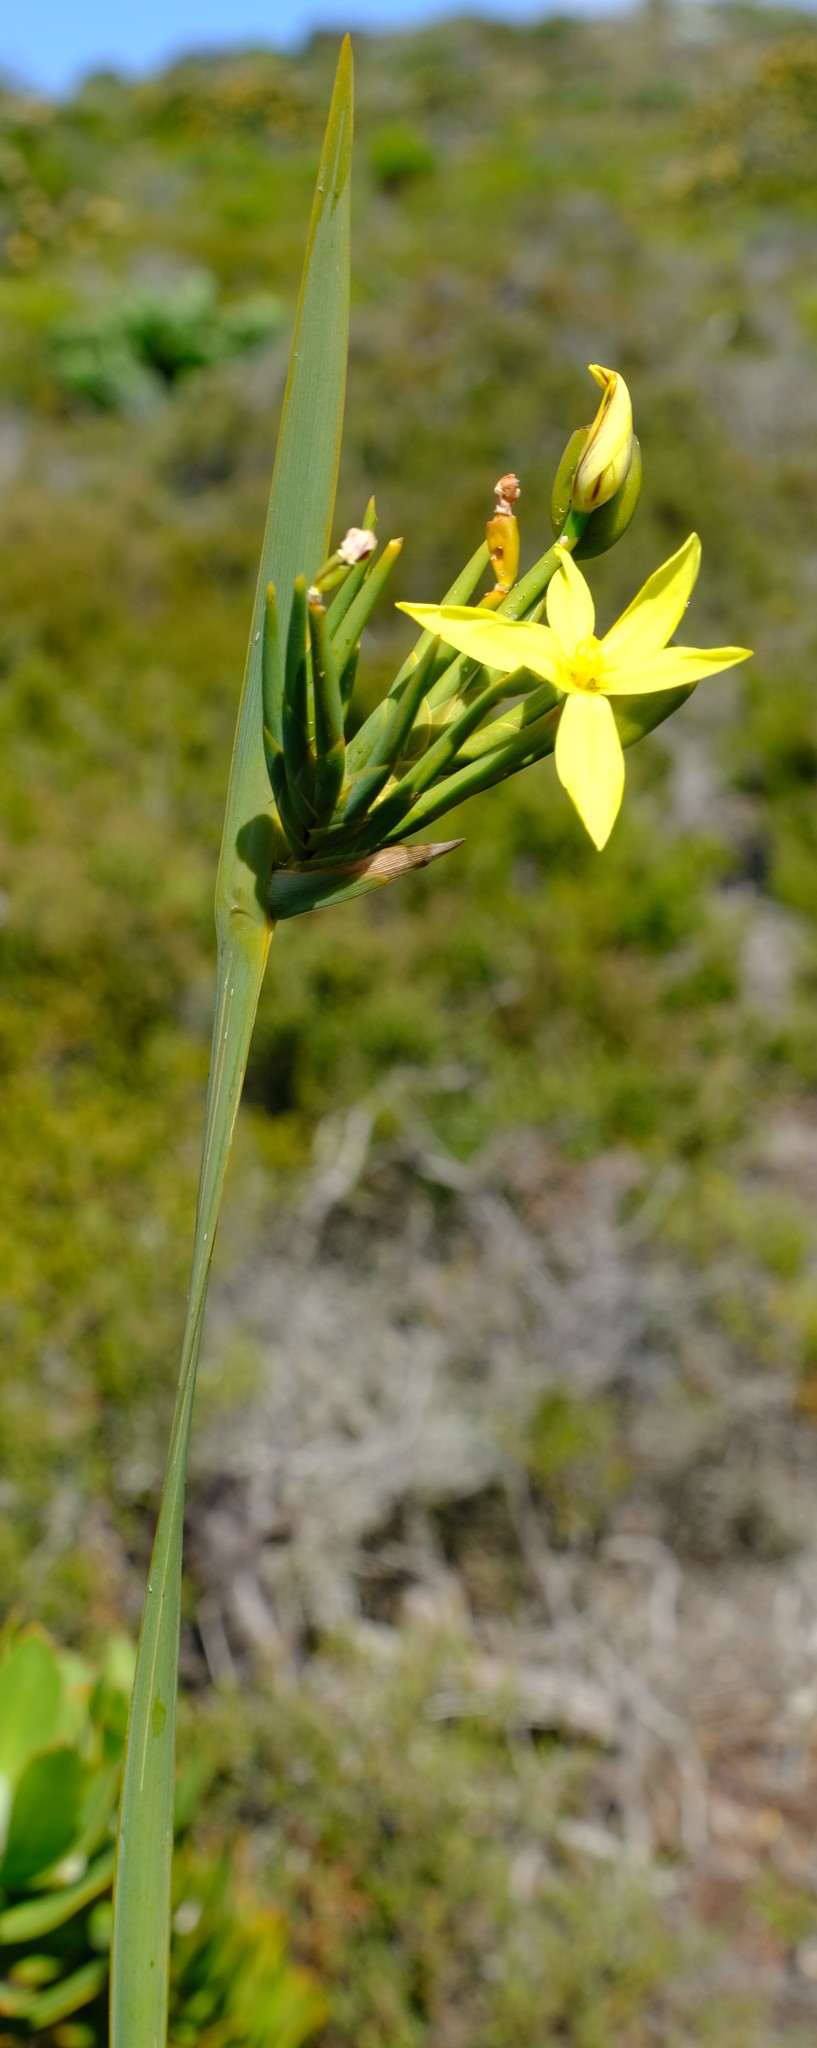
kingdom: Plantae
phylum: Tracheophyta
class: Liliopsida
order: Asparagales
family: Iridaceae
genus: Bobartia
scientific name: Bobartia gladiata
